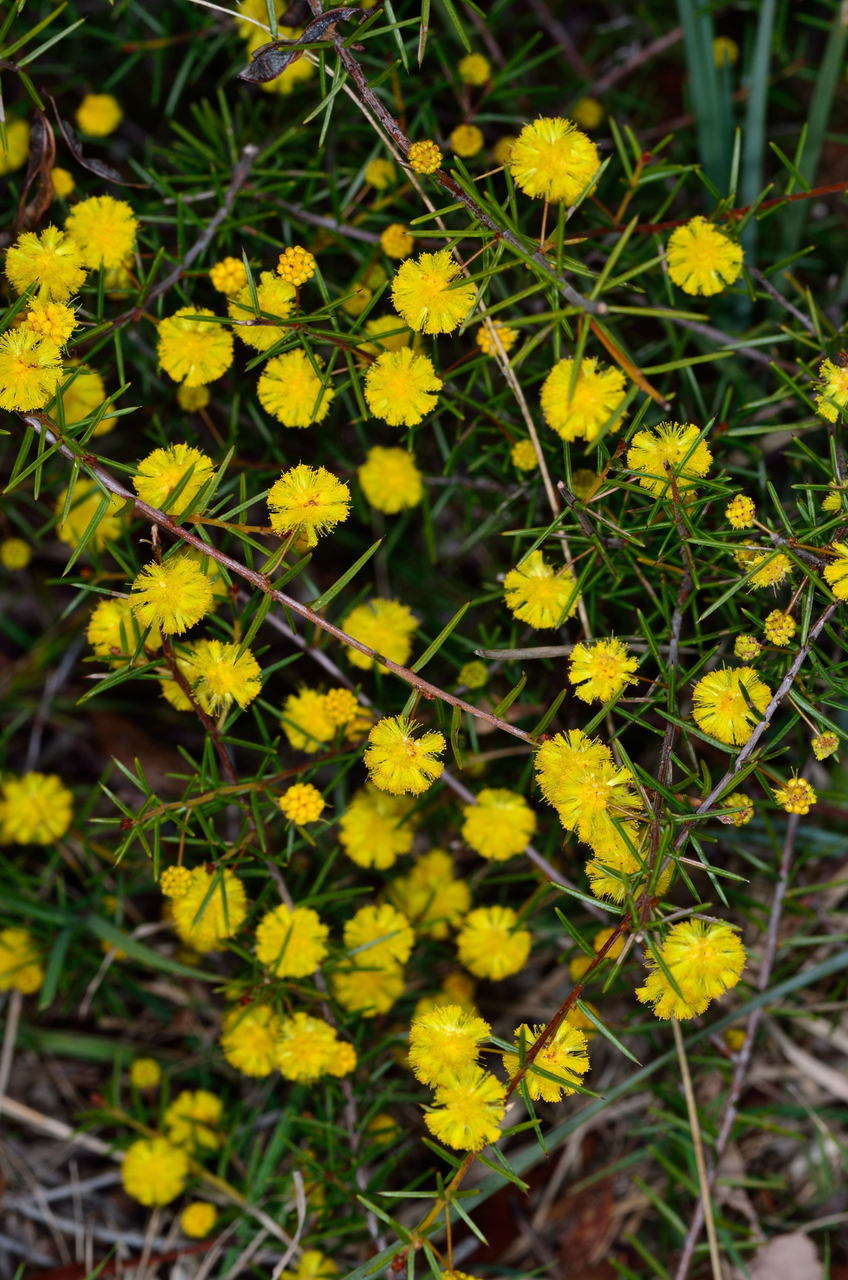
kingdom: Plantae
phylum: Tracheophyta
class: Magnoliopsida
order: Fabales
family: Fabaceae
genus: Acacia
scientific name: Acacia brownii
